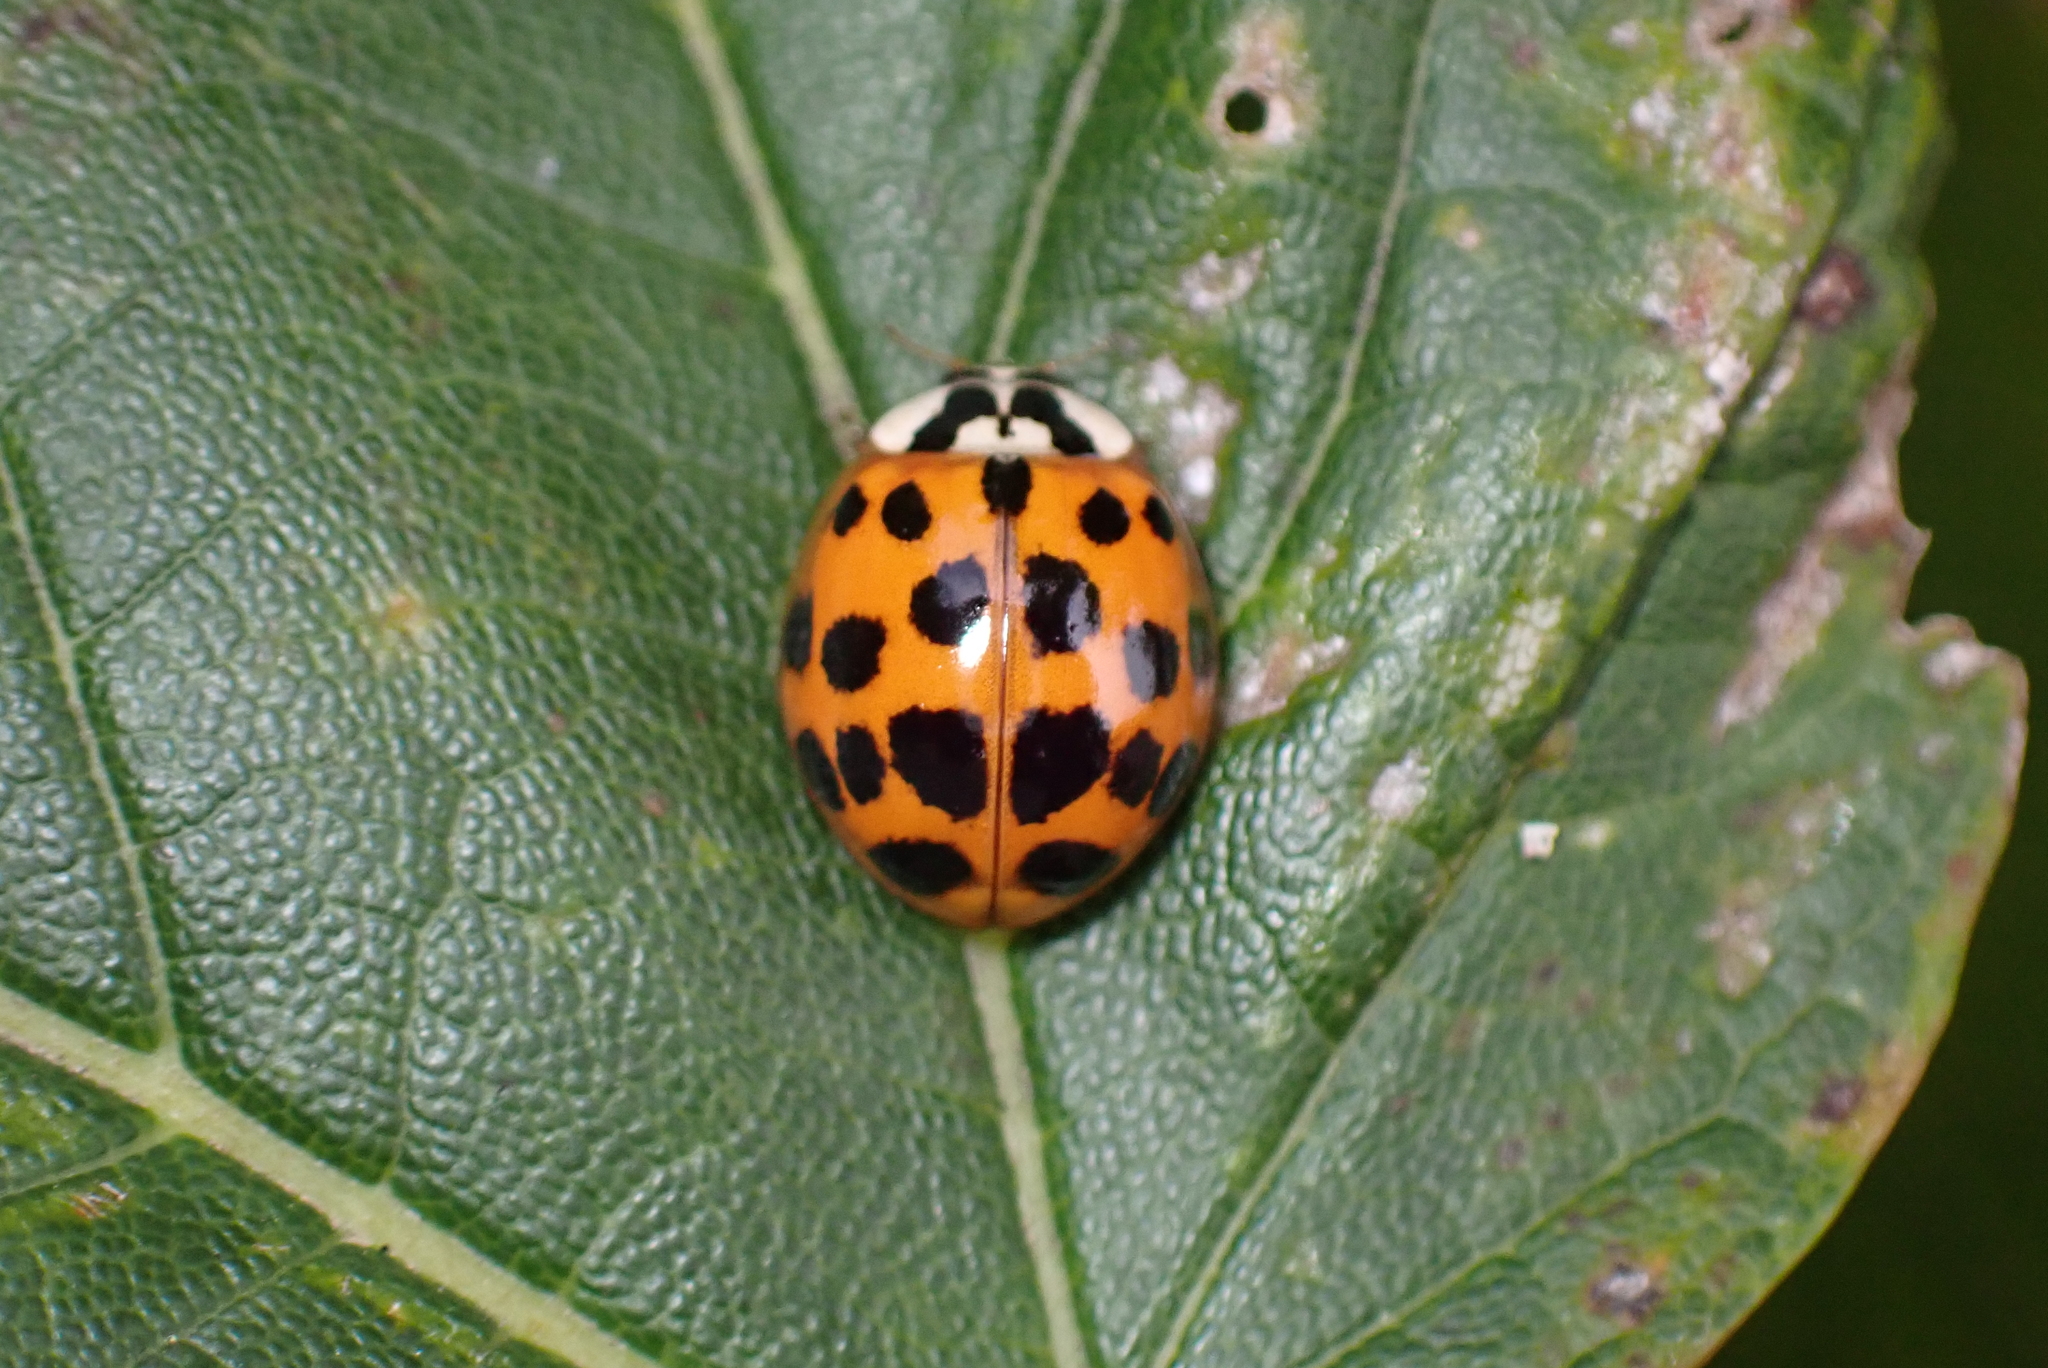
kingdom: Animalia
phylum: Arthropoda
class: Insecta
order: Coleoptera
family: Coccinellidae
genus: Harmonia
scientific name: Harmonia axyridis
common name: Harlequin ladybird
